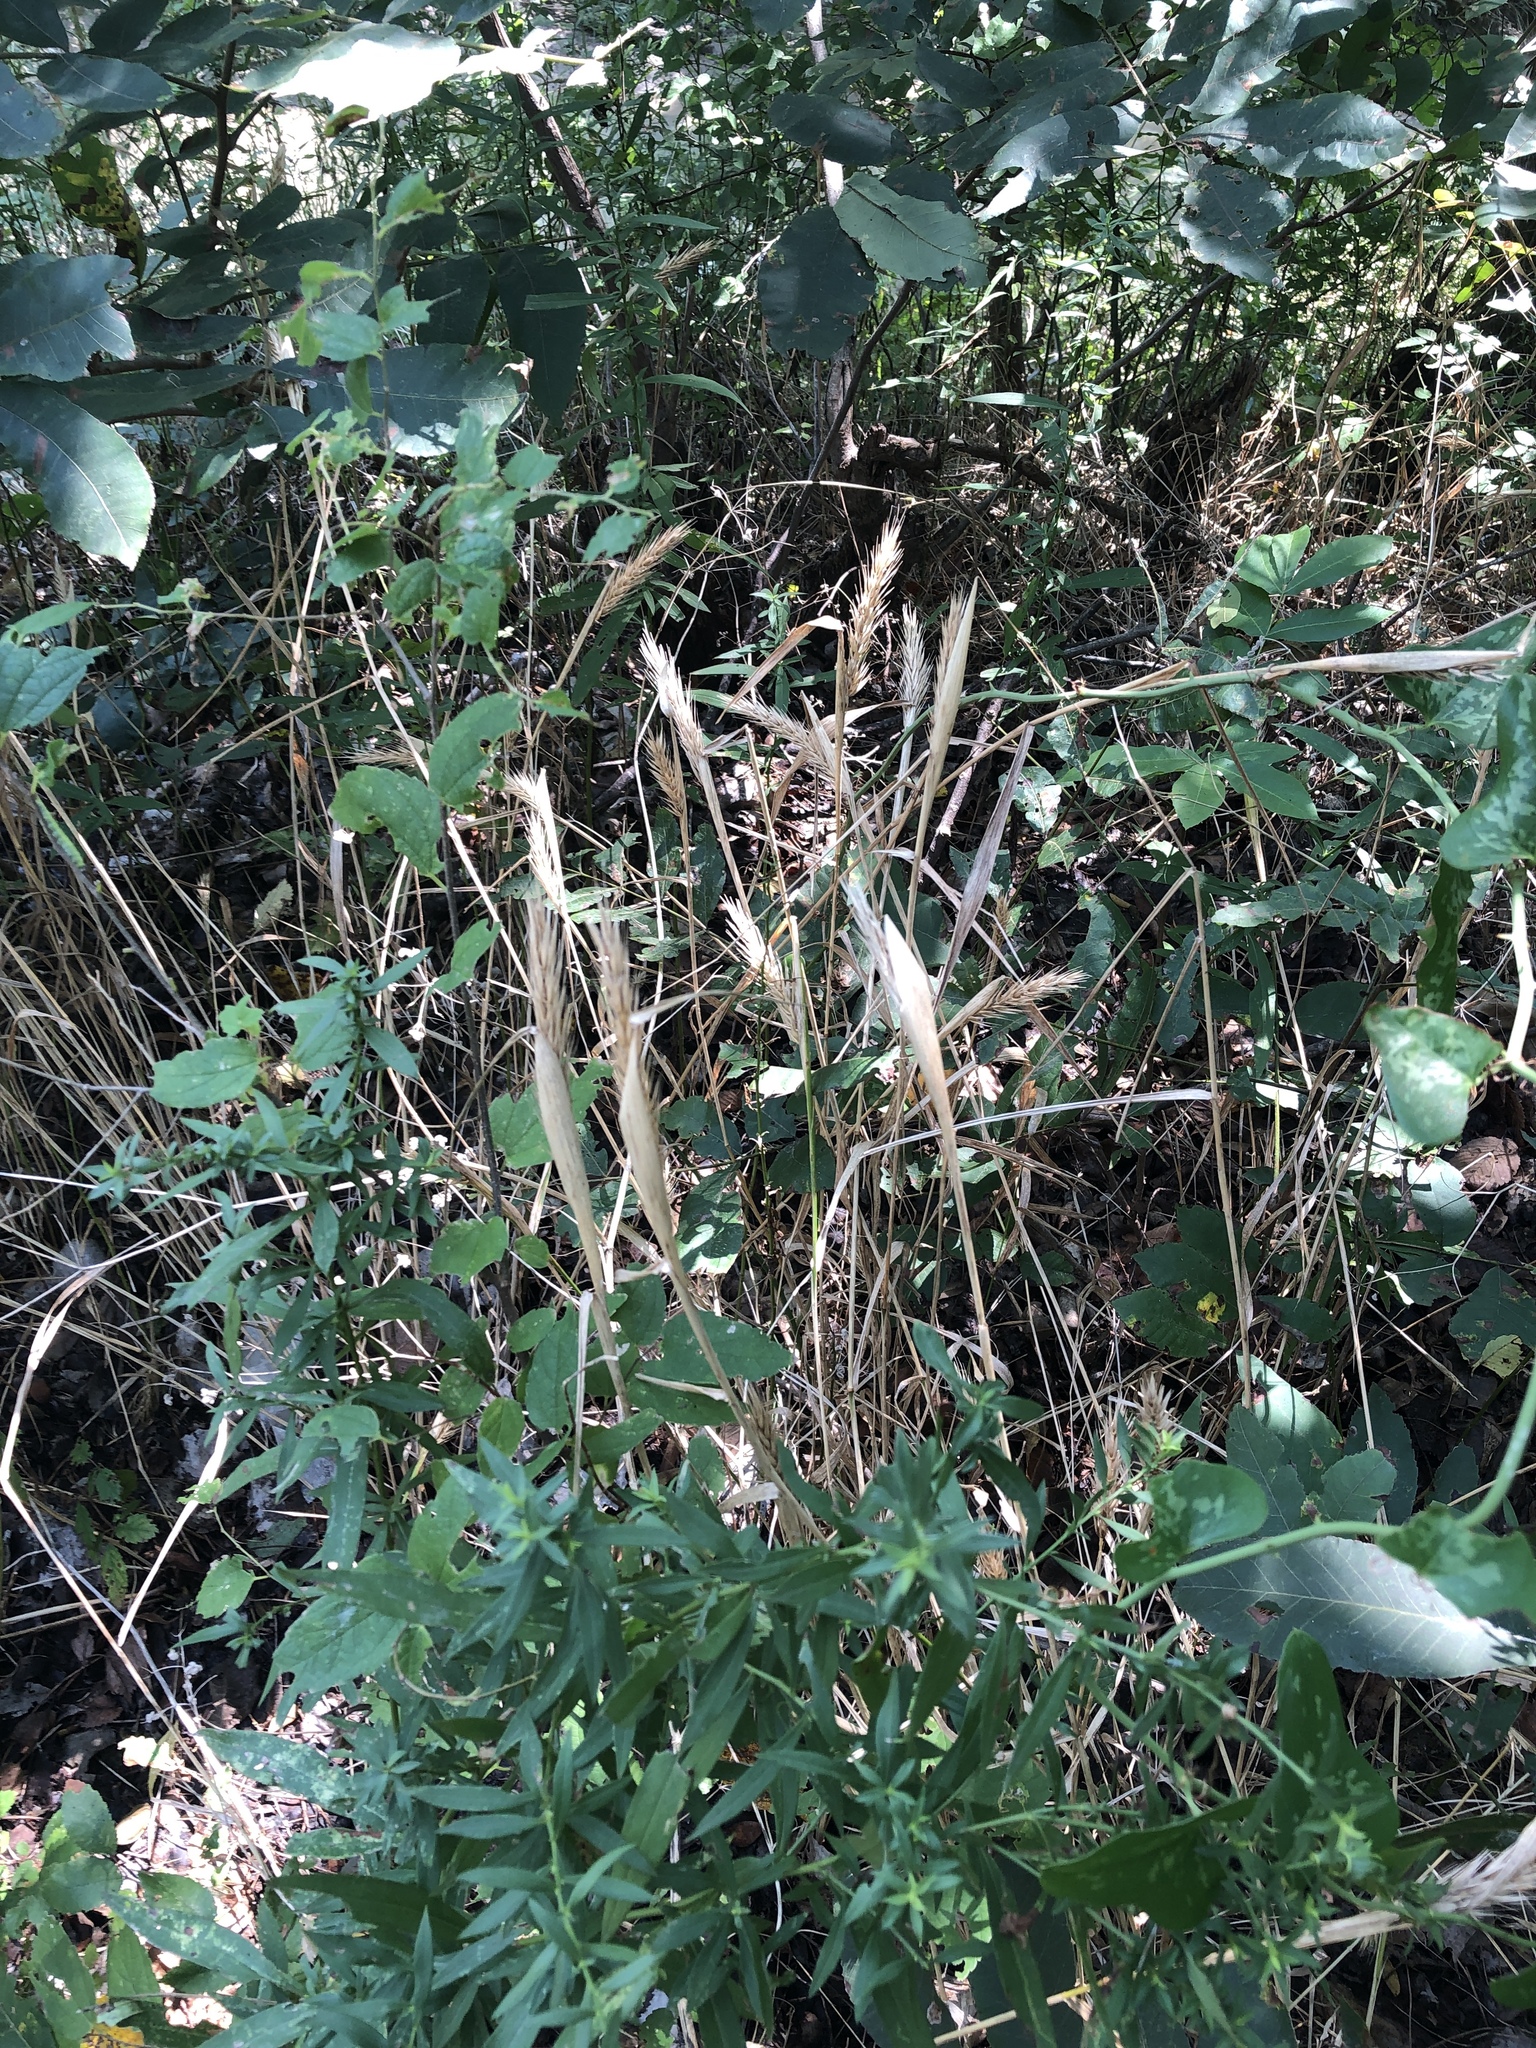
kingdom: Plantae
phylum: Tracheophyta
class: Liliopsida
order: Poales
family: Poaceae
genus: Elymus
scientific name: Elymus virginicus
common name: Common eastern wildrye
